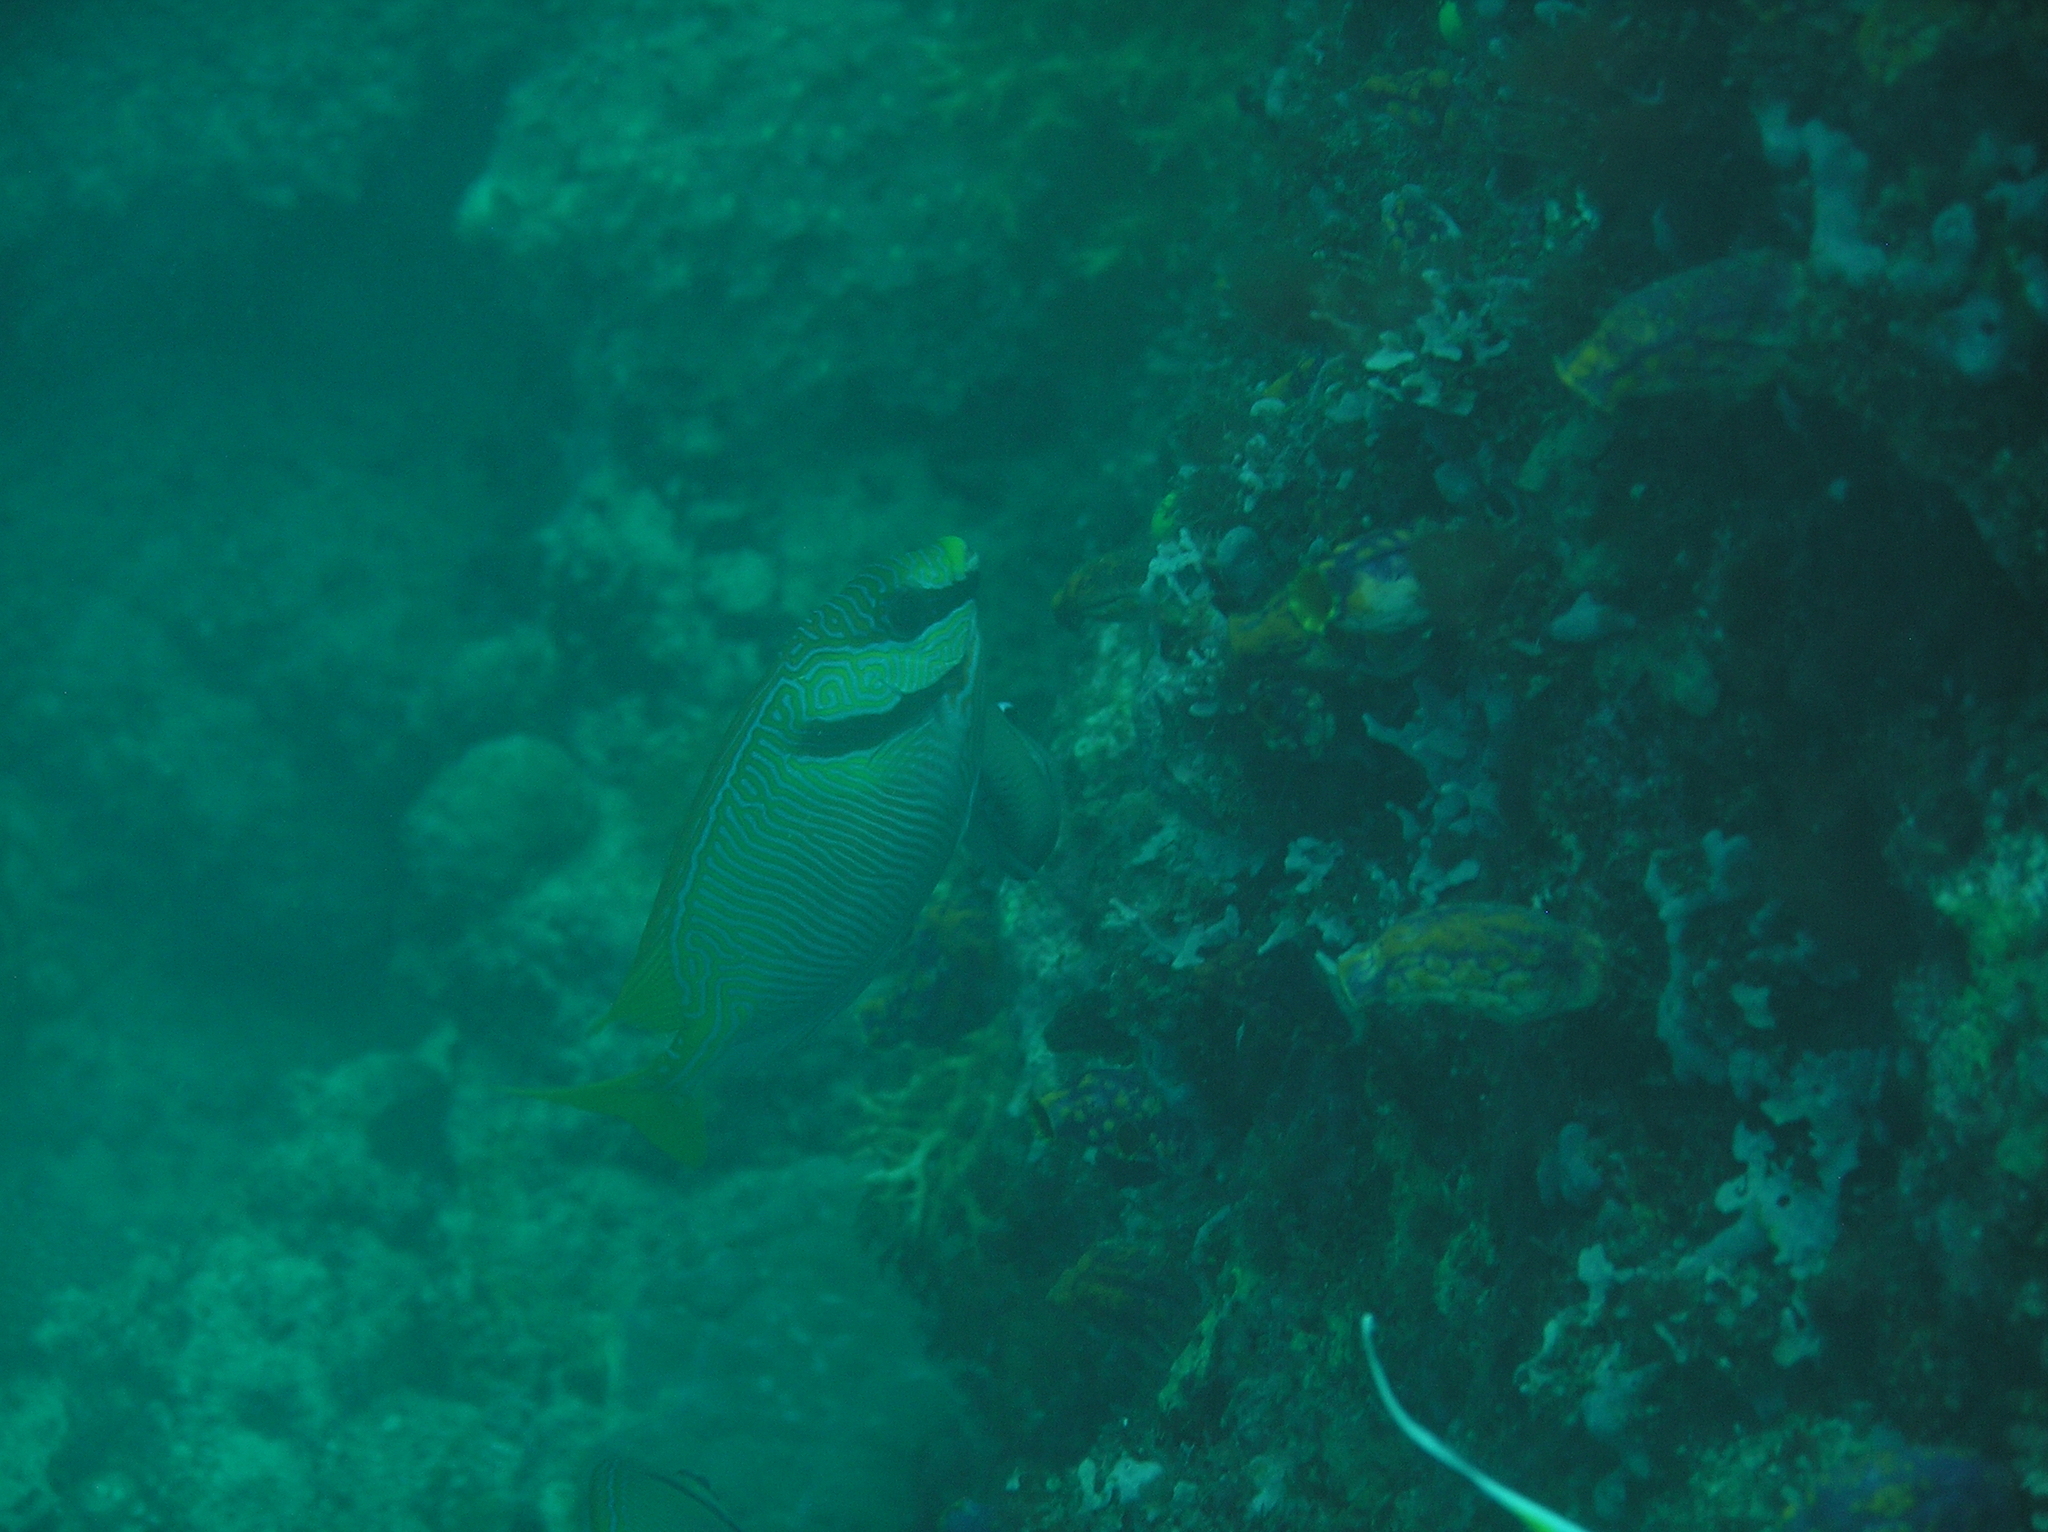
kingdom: Animalia
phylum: Chordata
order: Perciformes
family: Siganidae
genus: Siganus
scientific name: Siganus doliatus
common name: Barred spinefoot
